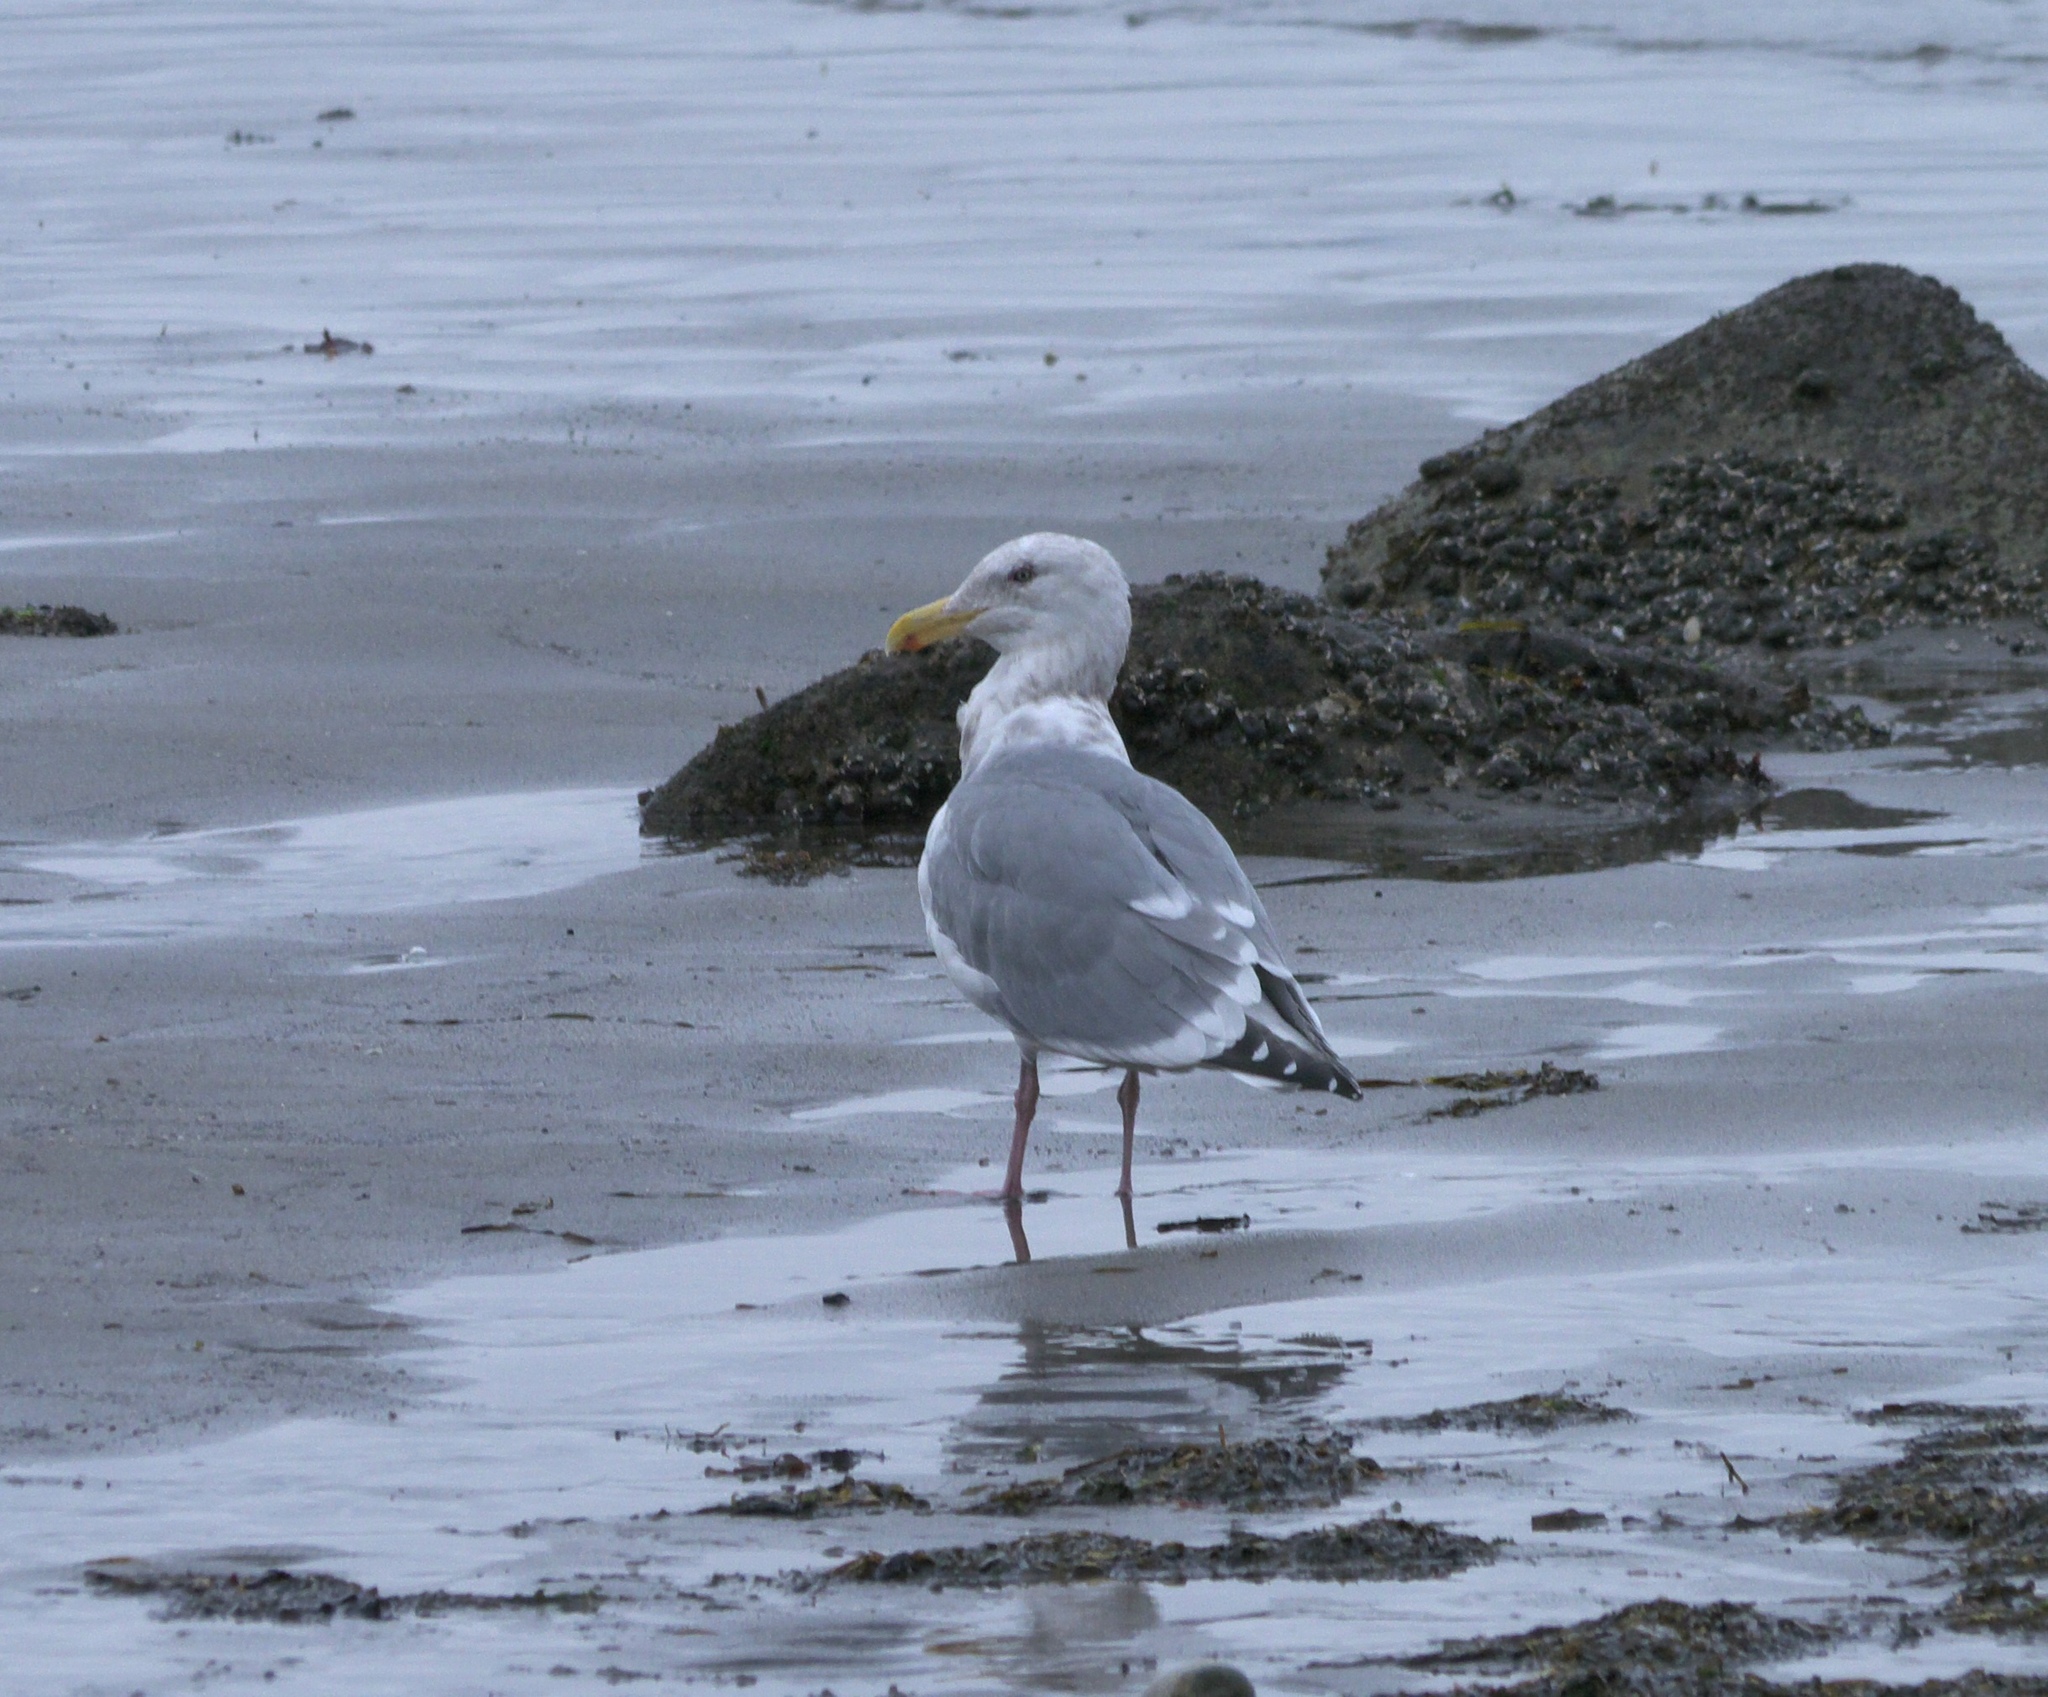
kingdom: Animalia
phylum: Chordata
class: Aves
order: Charadriiformes
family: Laridae
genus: Larus
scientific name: Larus
